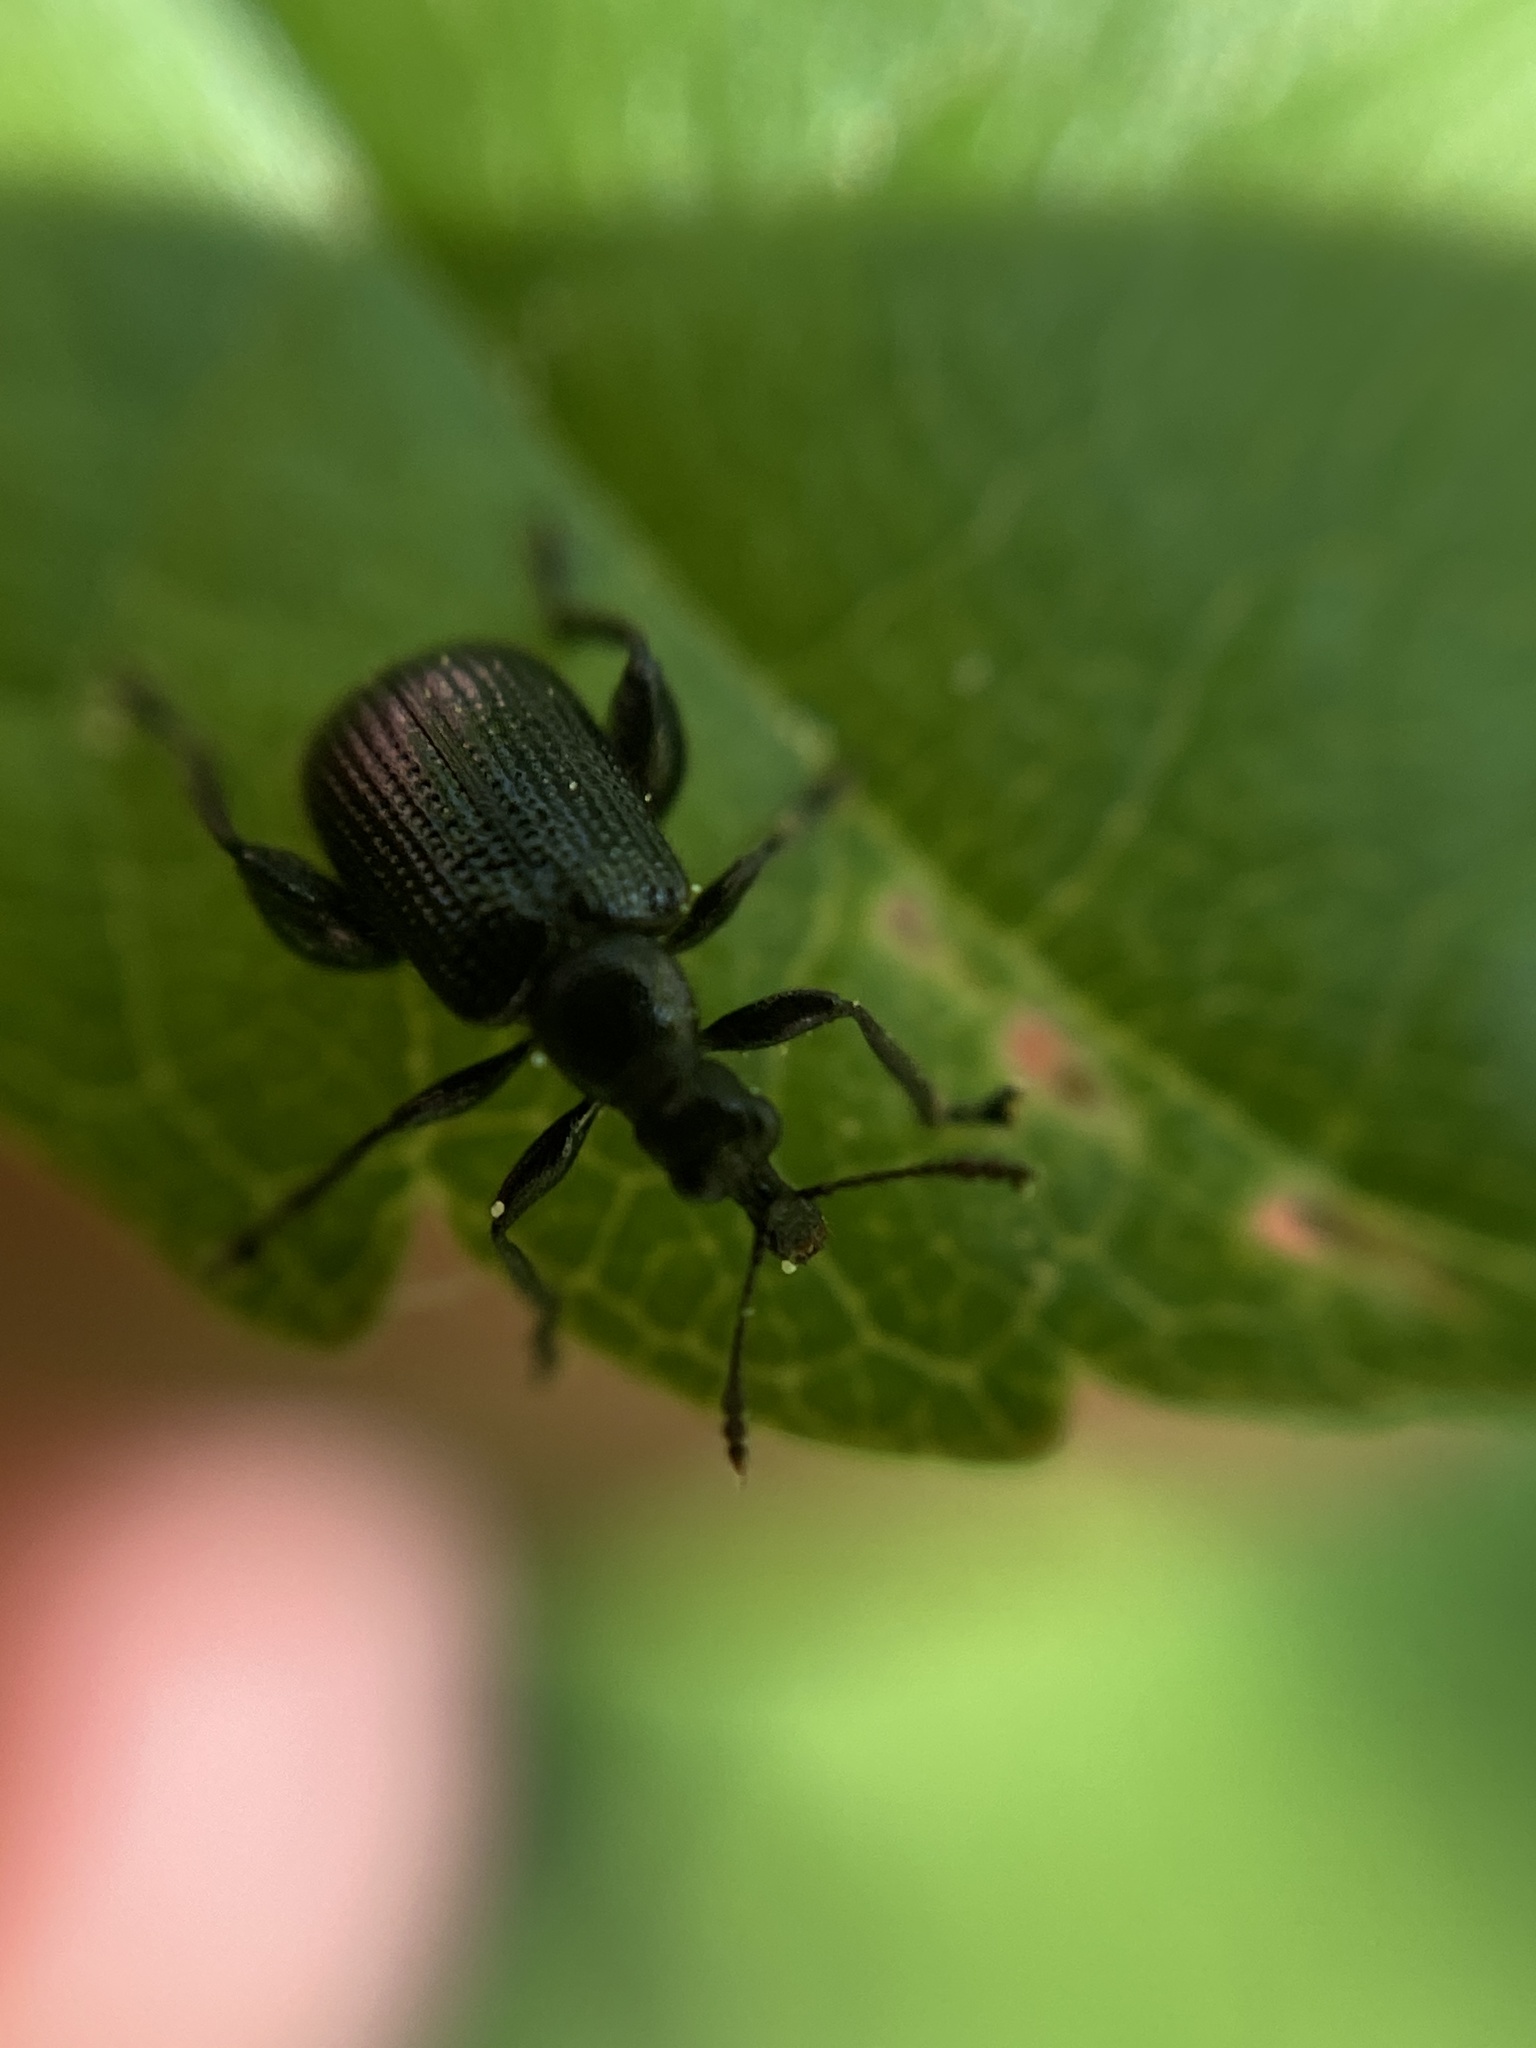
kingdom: Animalia
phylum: Arthropoda
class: Insecta
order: Coleoptera
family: Attelabidae
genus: Deporaus
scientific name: Deporaus betulae
